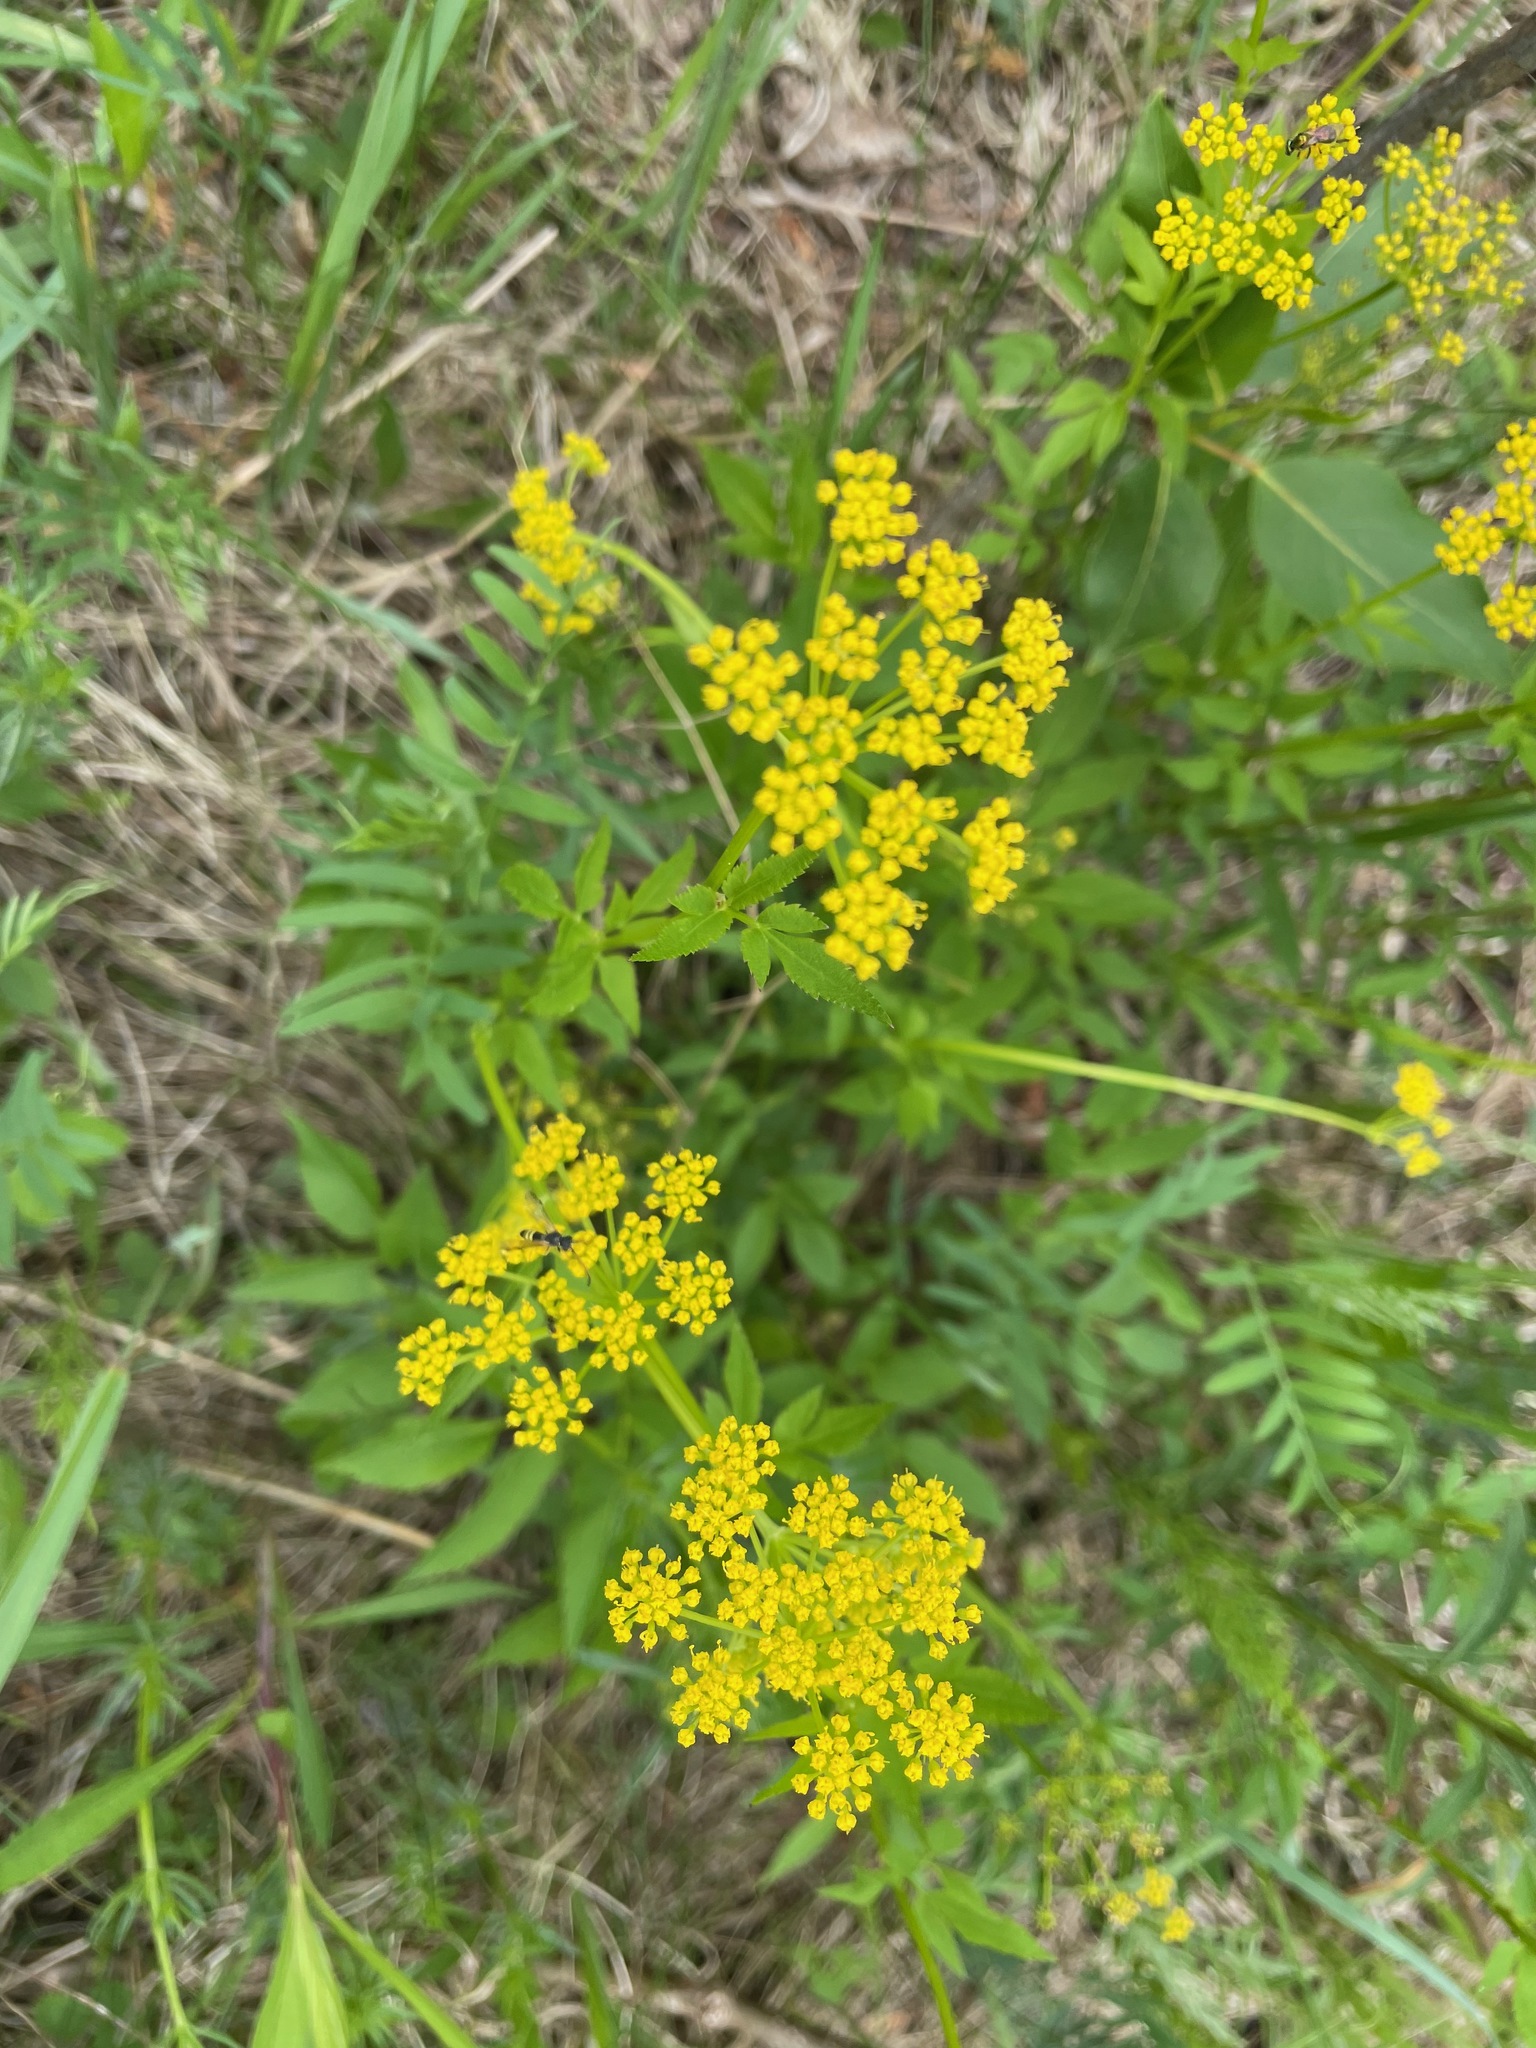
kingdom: Plantae
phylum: Tracheophyta
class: Magnoliopsida
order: Apiales
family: Apiaceae
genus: Zizia
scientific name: Zizia aurea
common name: Golden alexanders
